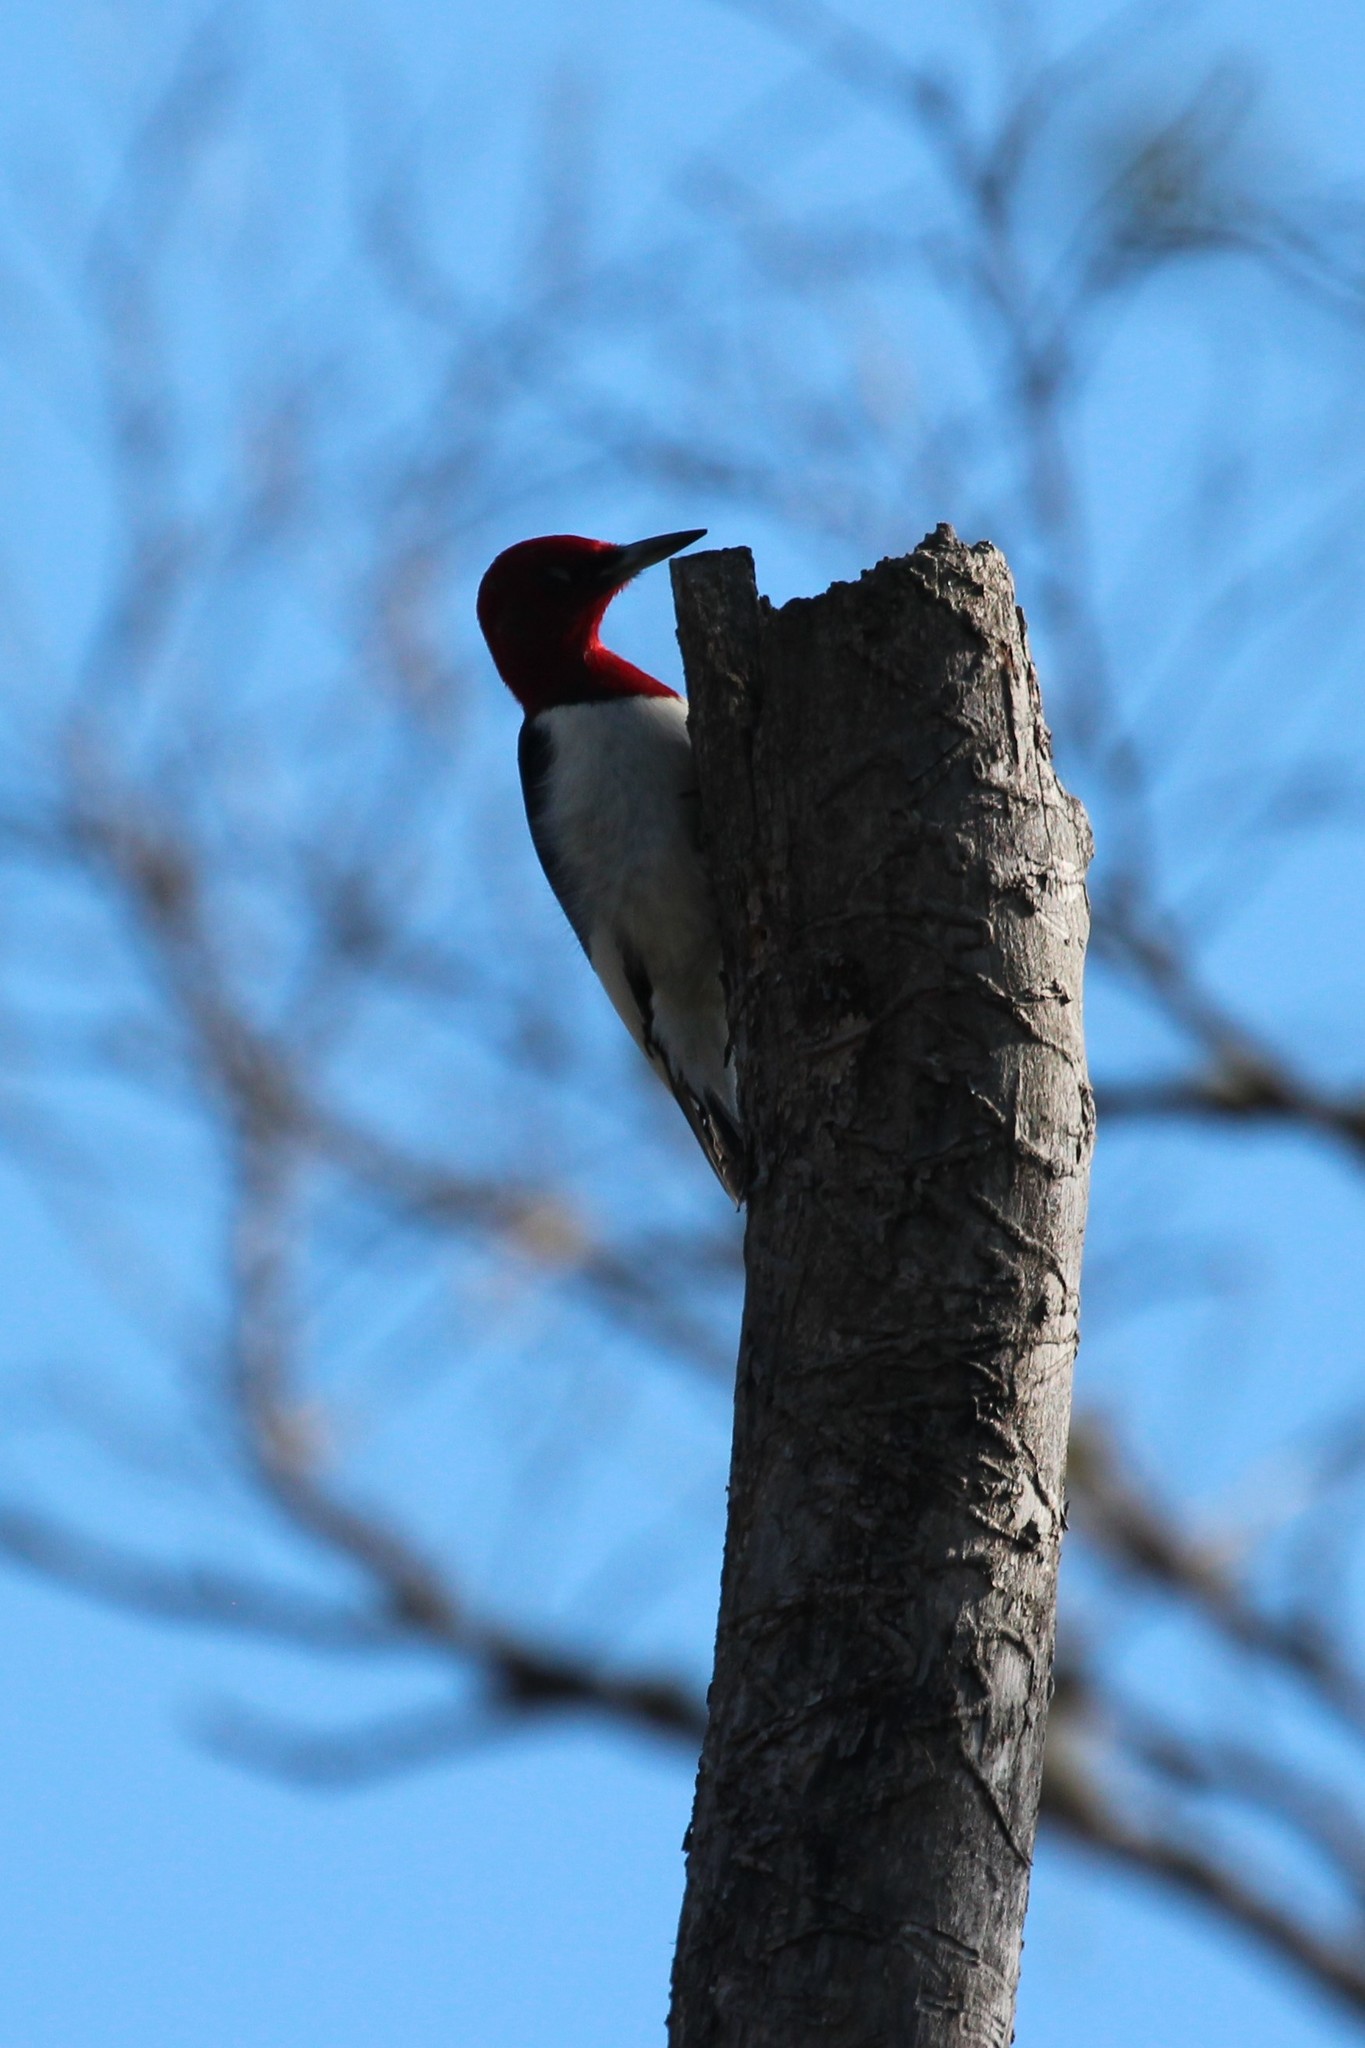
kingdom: Animalia
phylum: Chordata
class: Aves
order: Piciformes
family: Picidae
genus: Melanerpes
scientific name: Melanerpes erythrocephalus
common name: Red-headed woodpecker
